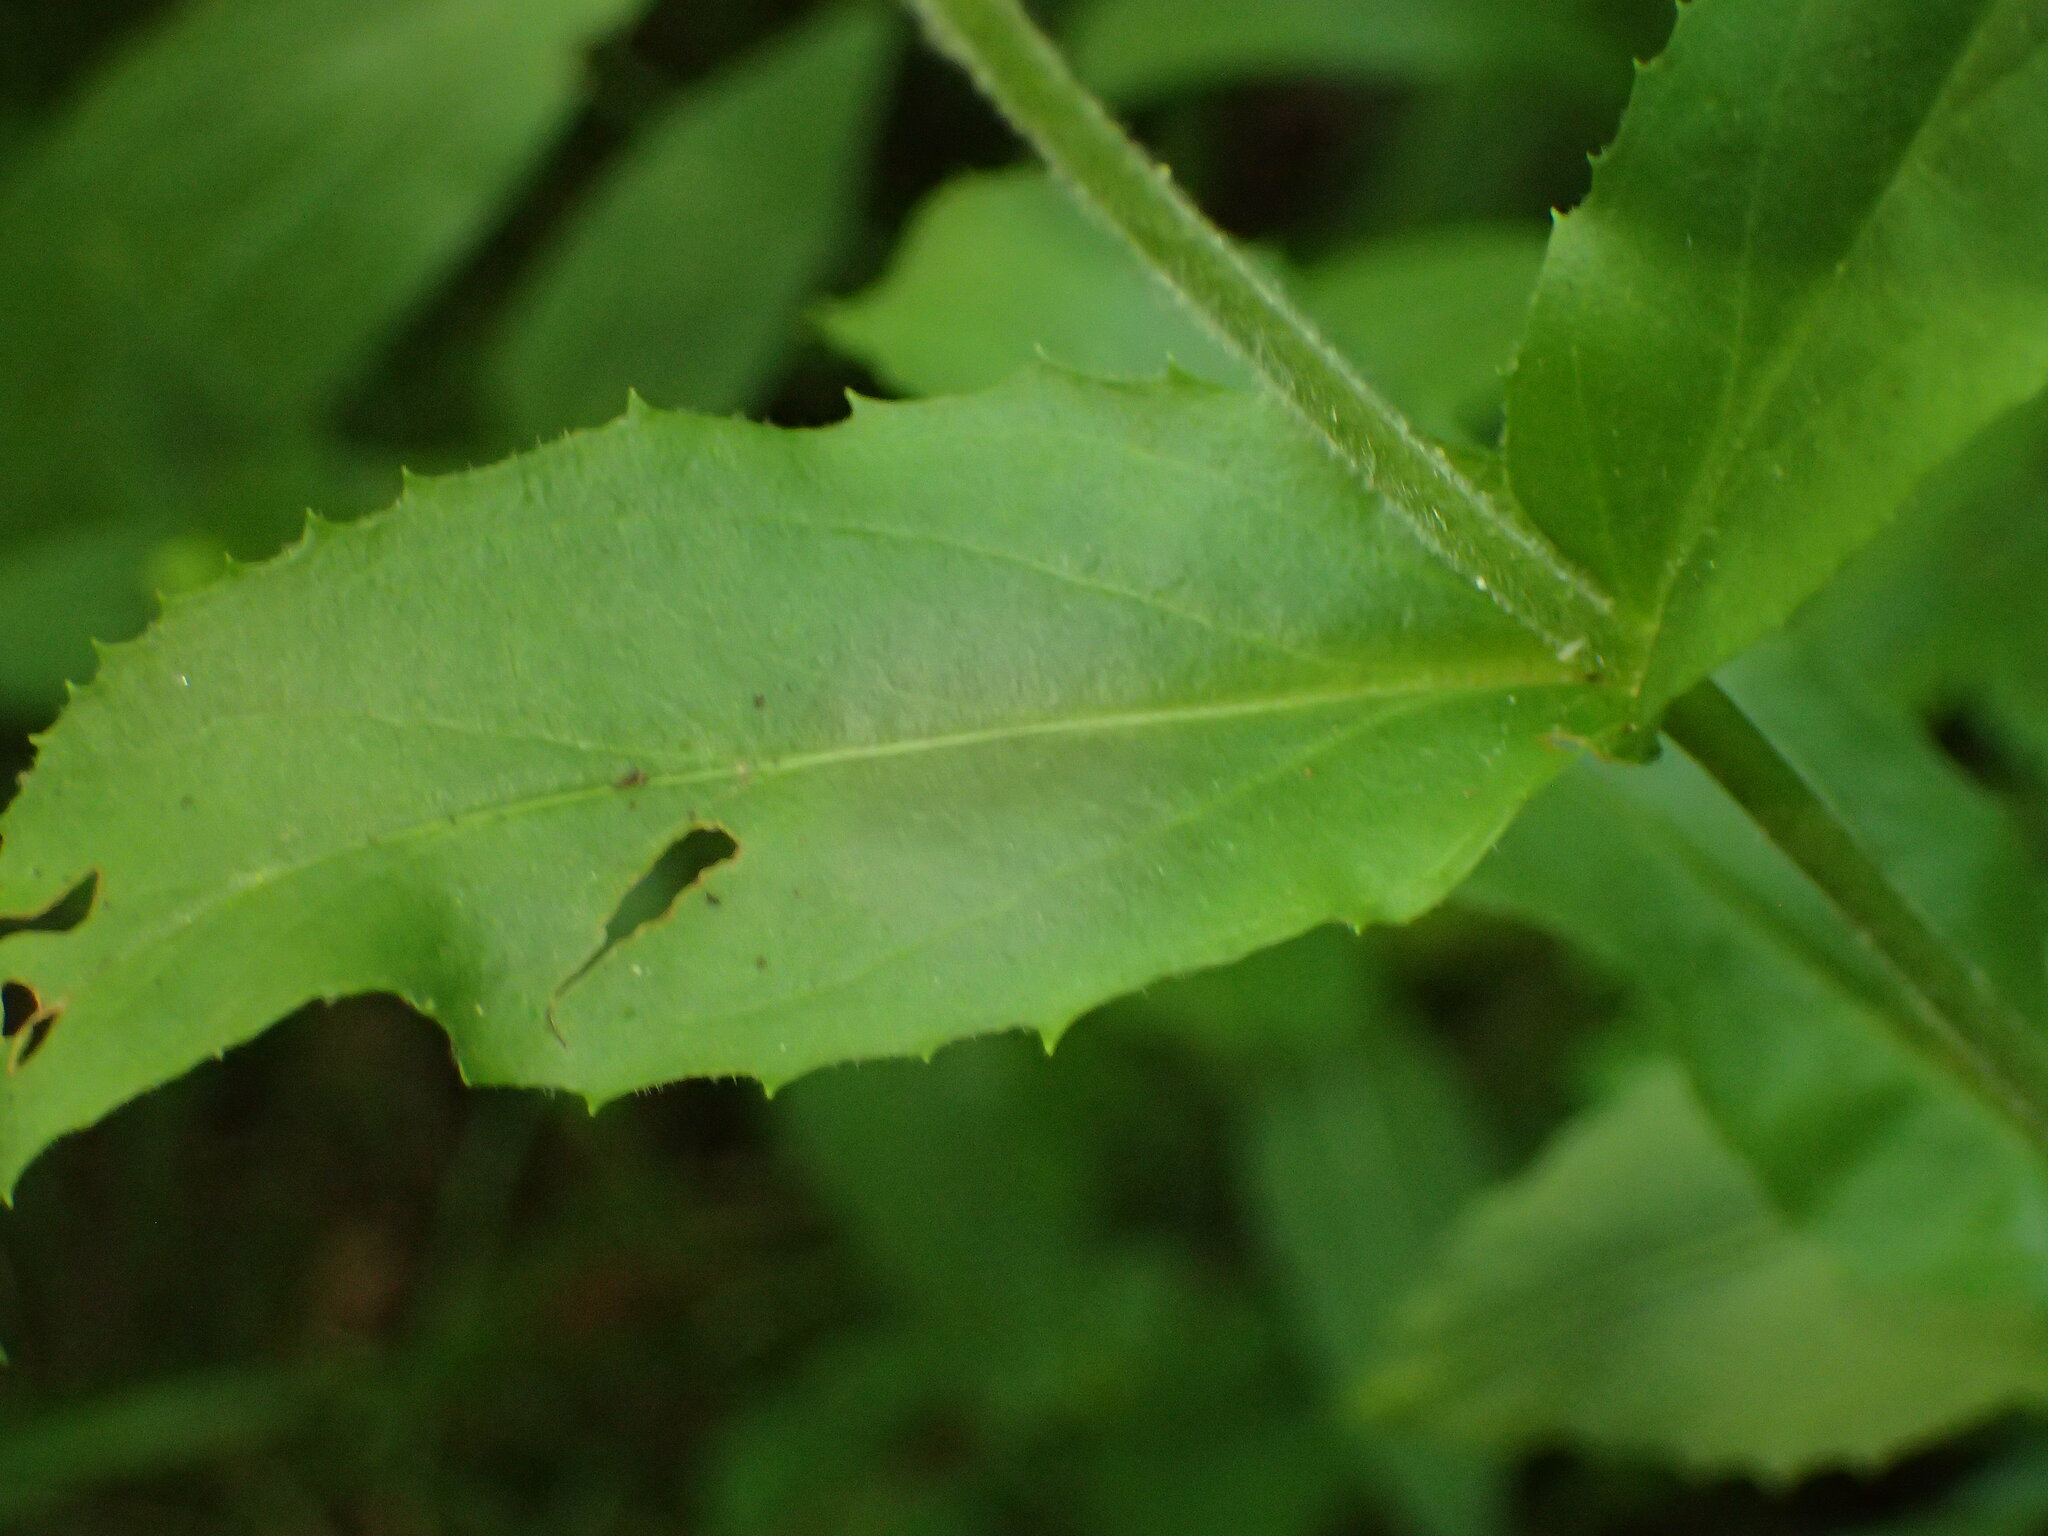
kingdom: Plantae
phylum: Tracheophyta
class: Magnoliopsida
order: Lamiales
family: Plantaginaceae
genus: Penstemon
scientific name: Penstemon canescens
